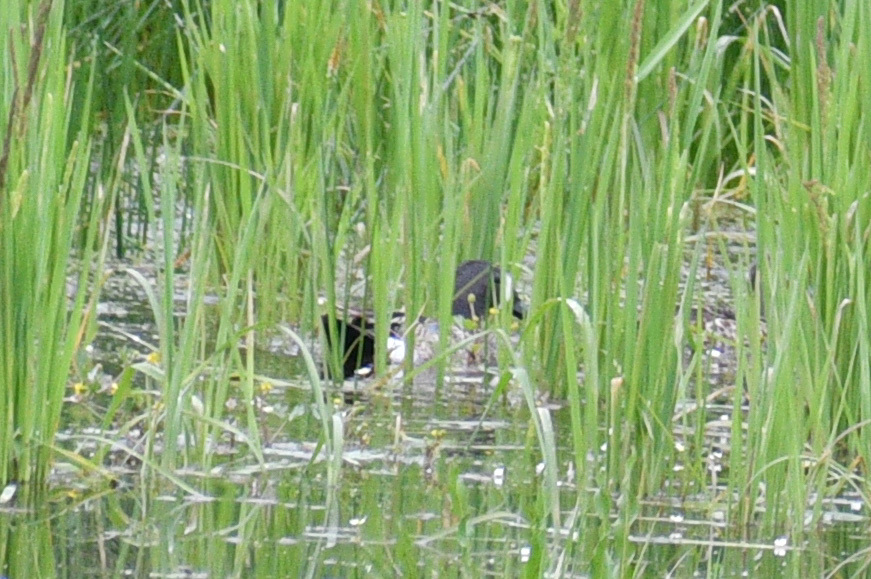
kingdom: Animalia
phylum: Chordata
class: Aves
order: Anseriformes
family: Anatidae
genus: Spatula
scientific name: Spatula discors
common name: Blue-winged teal
